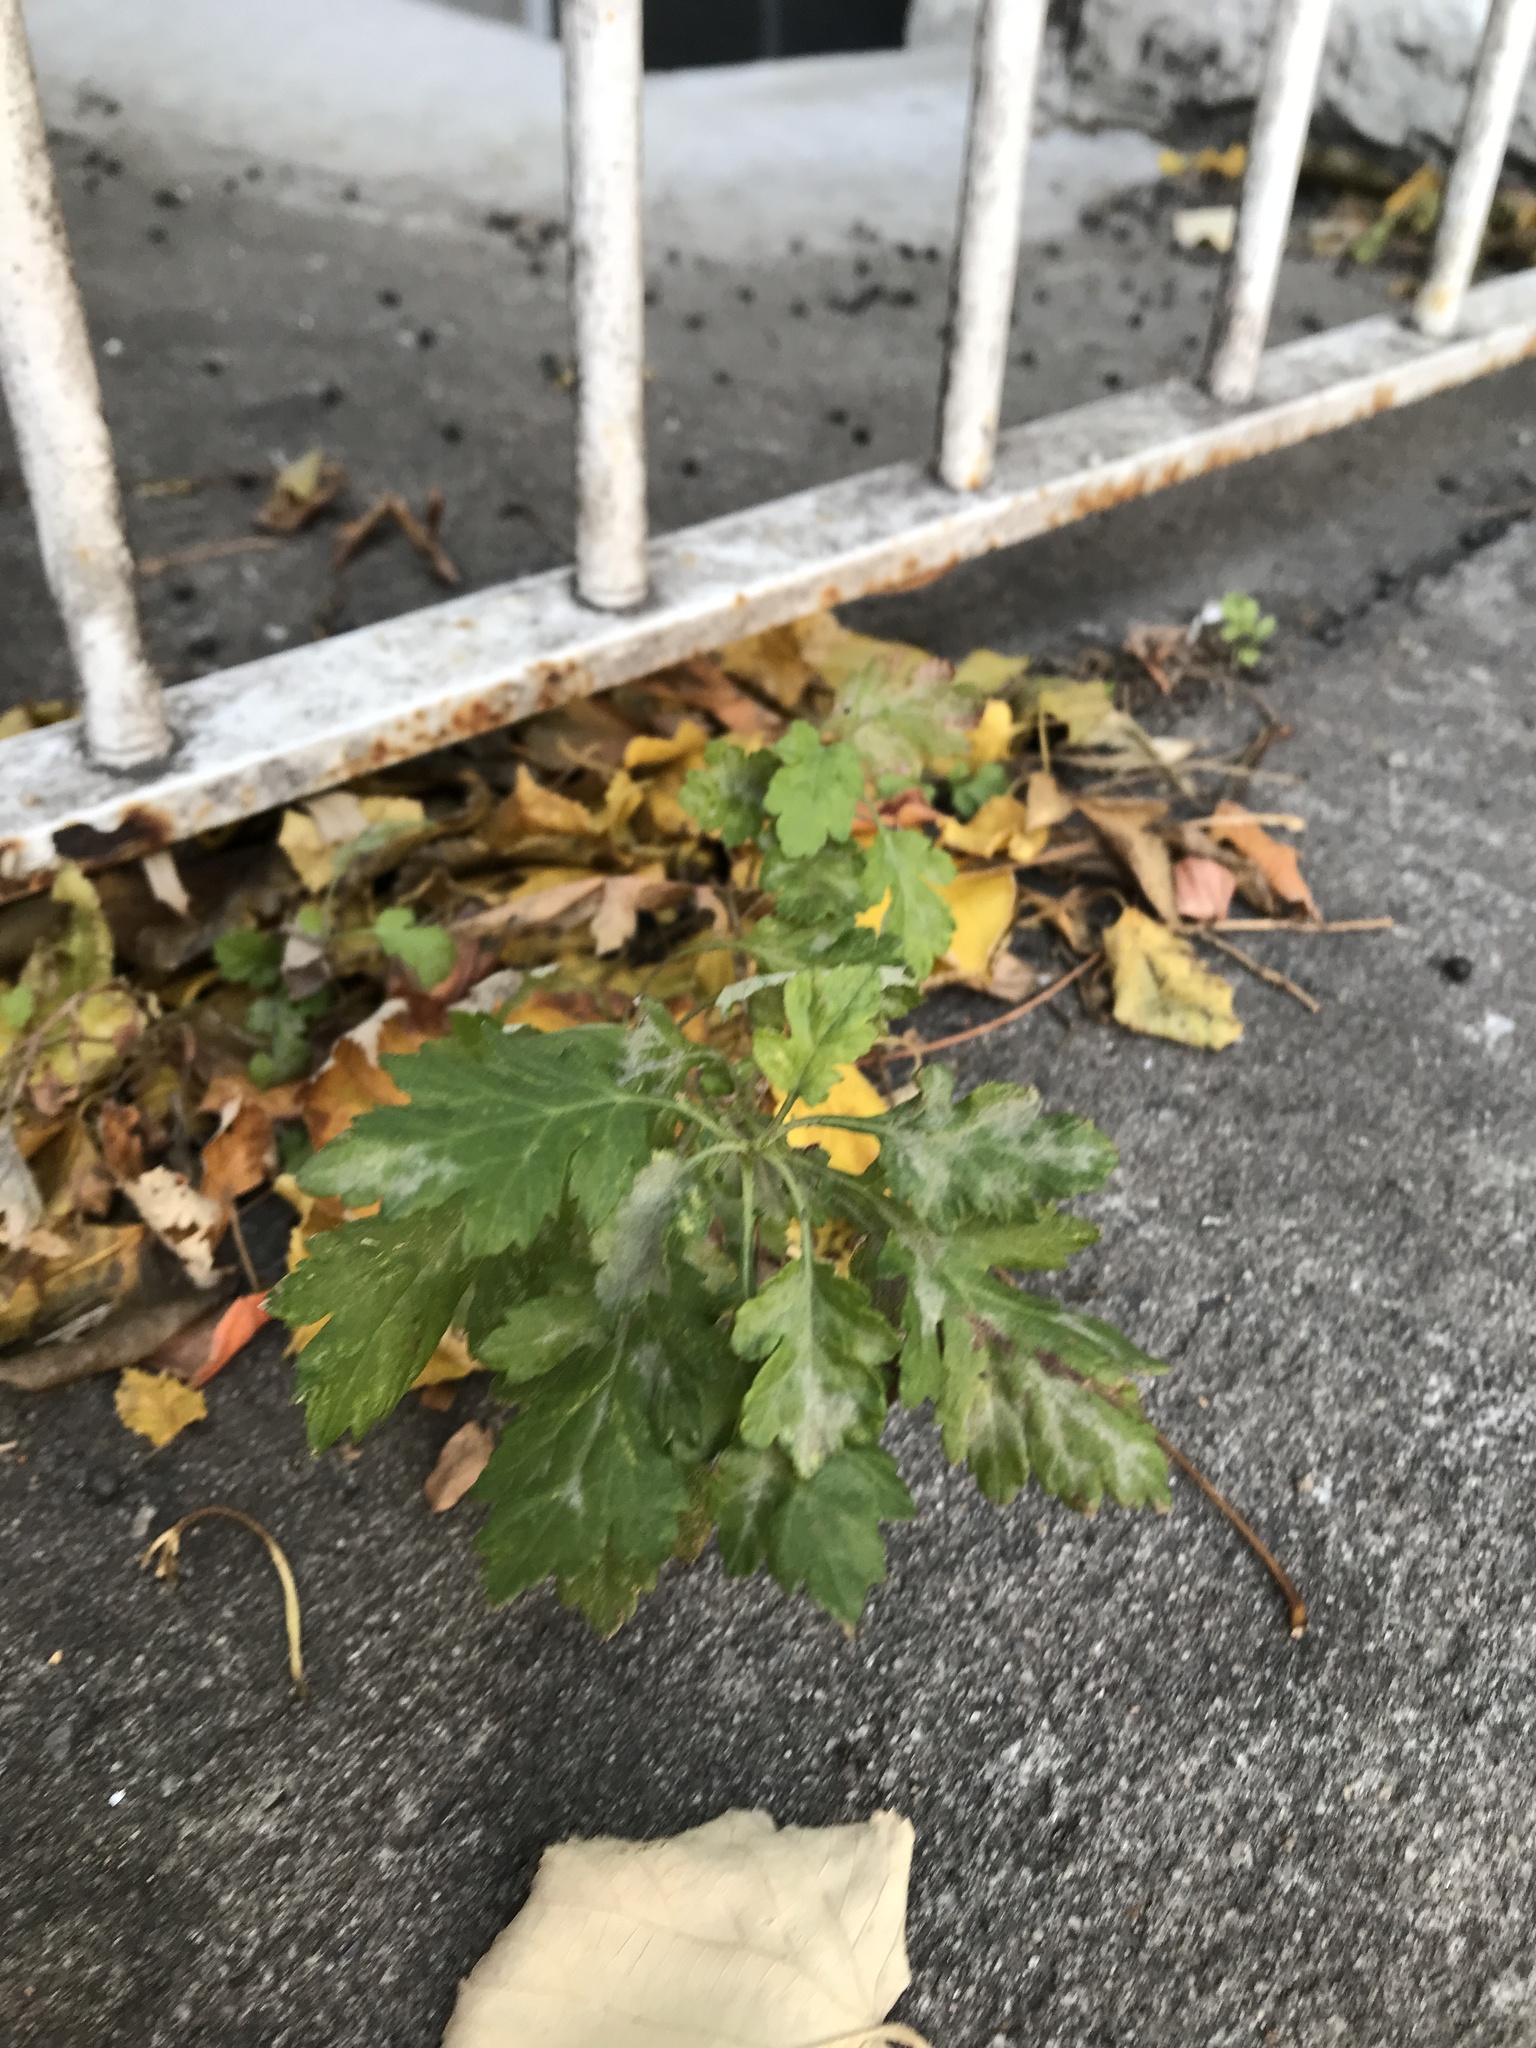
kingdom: Plantae
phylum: Tracheophyta
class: Magnoliopsida
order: Asterales
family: Asteraceae
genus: Artemisia
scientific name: Artemisia vulgaris
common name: Mugwort
